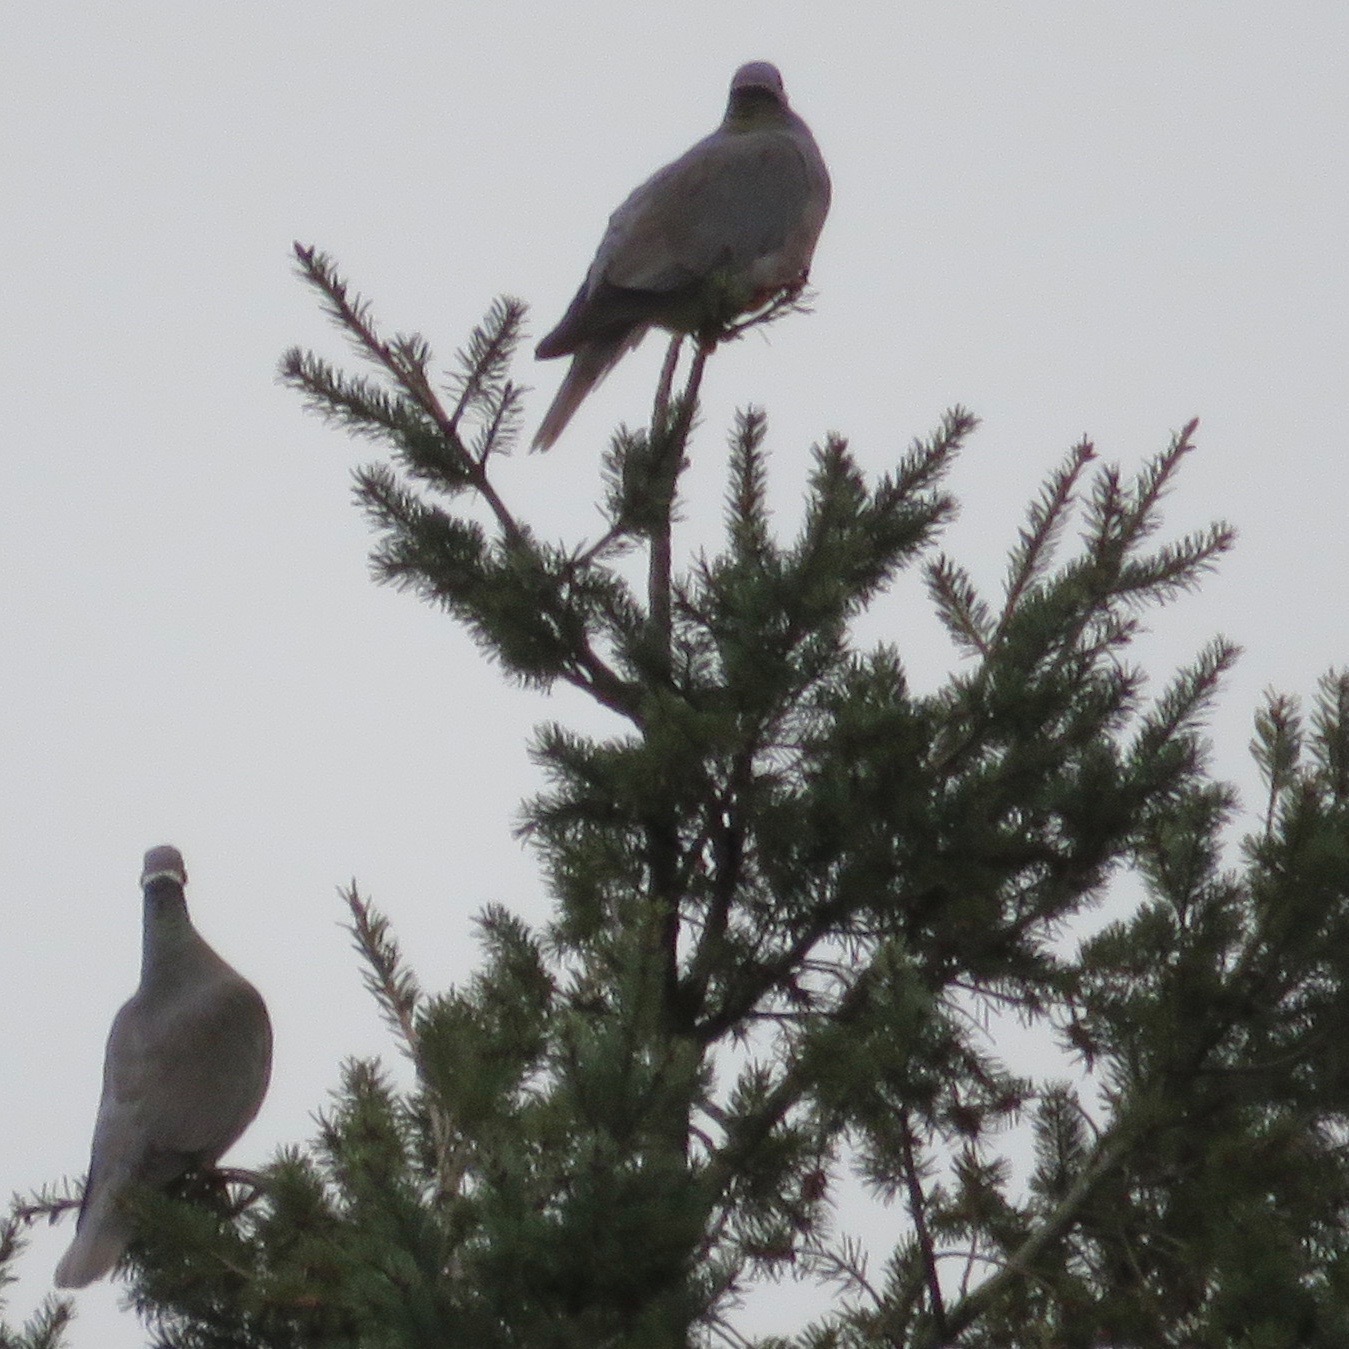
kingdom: Animalia
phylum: Chordata
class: Aves
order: Columbiformes
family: Columbidae
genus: Patagioenas
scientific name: Patagioenas fasciata
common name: Band-tailed pigeon
